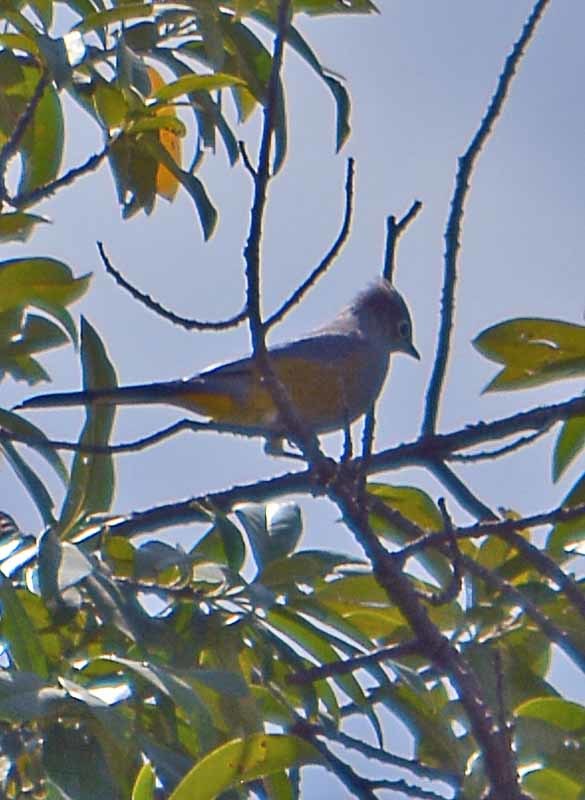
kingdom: Animalia
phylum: Chordata
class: Aves
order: Passeriformes
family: Ptilogonatidae
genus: Ptilogonys
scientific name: Ptilogonys cinereus
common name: Gray silky-flycatcher
